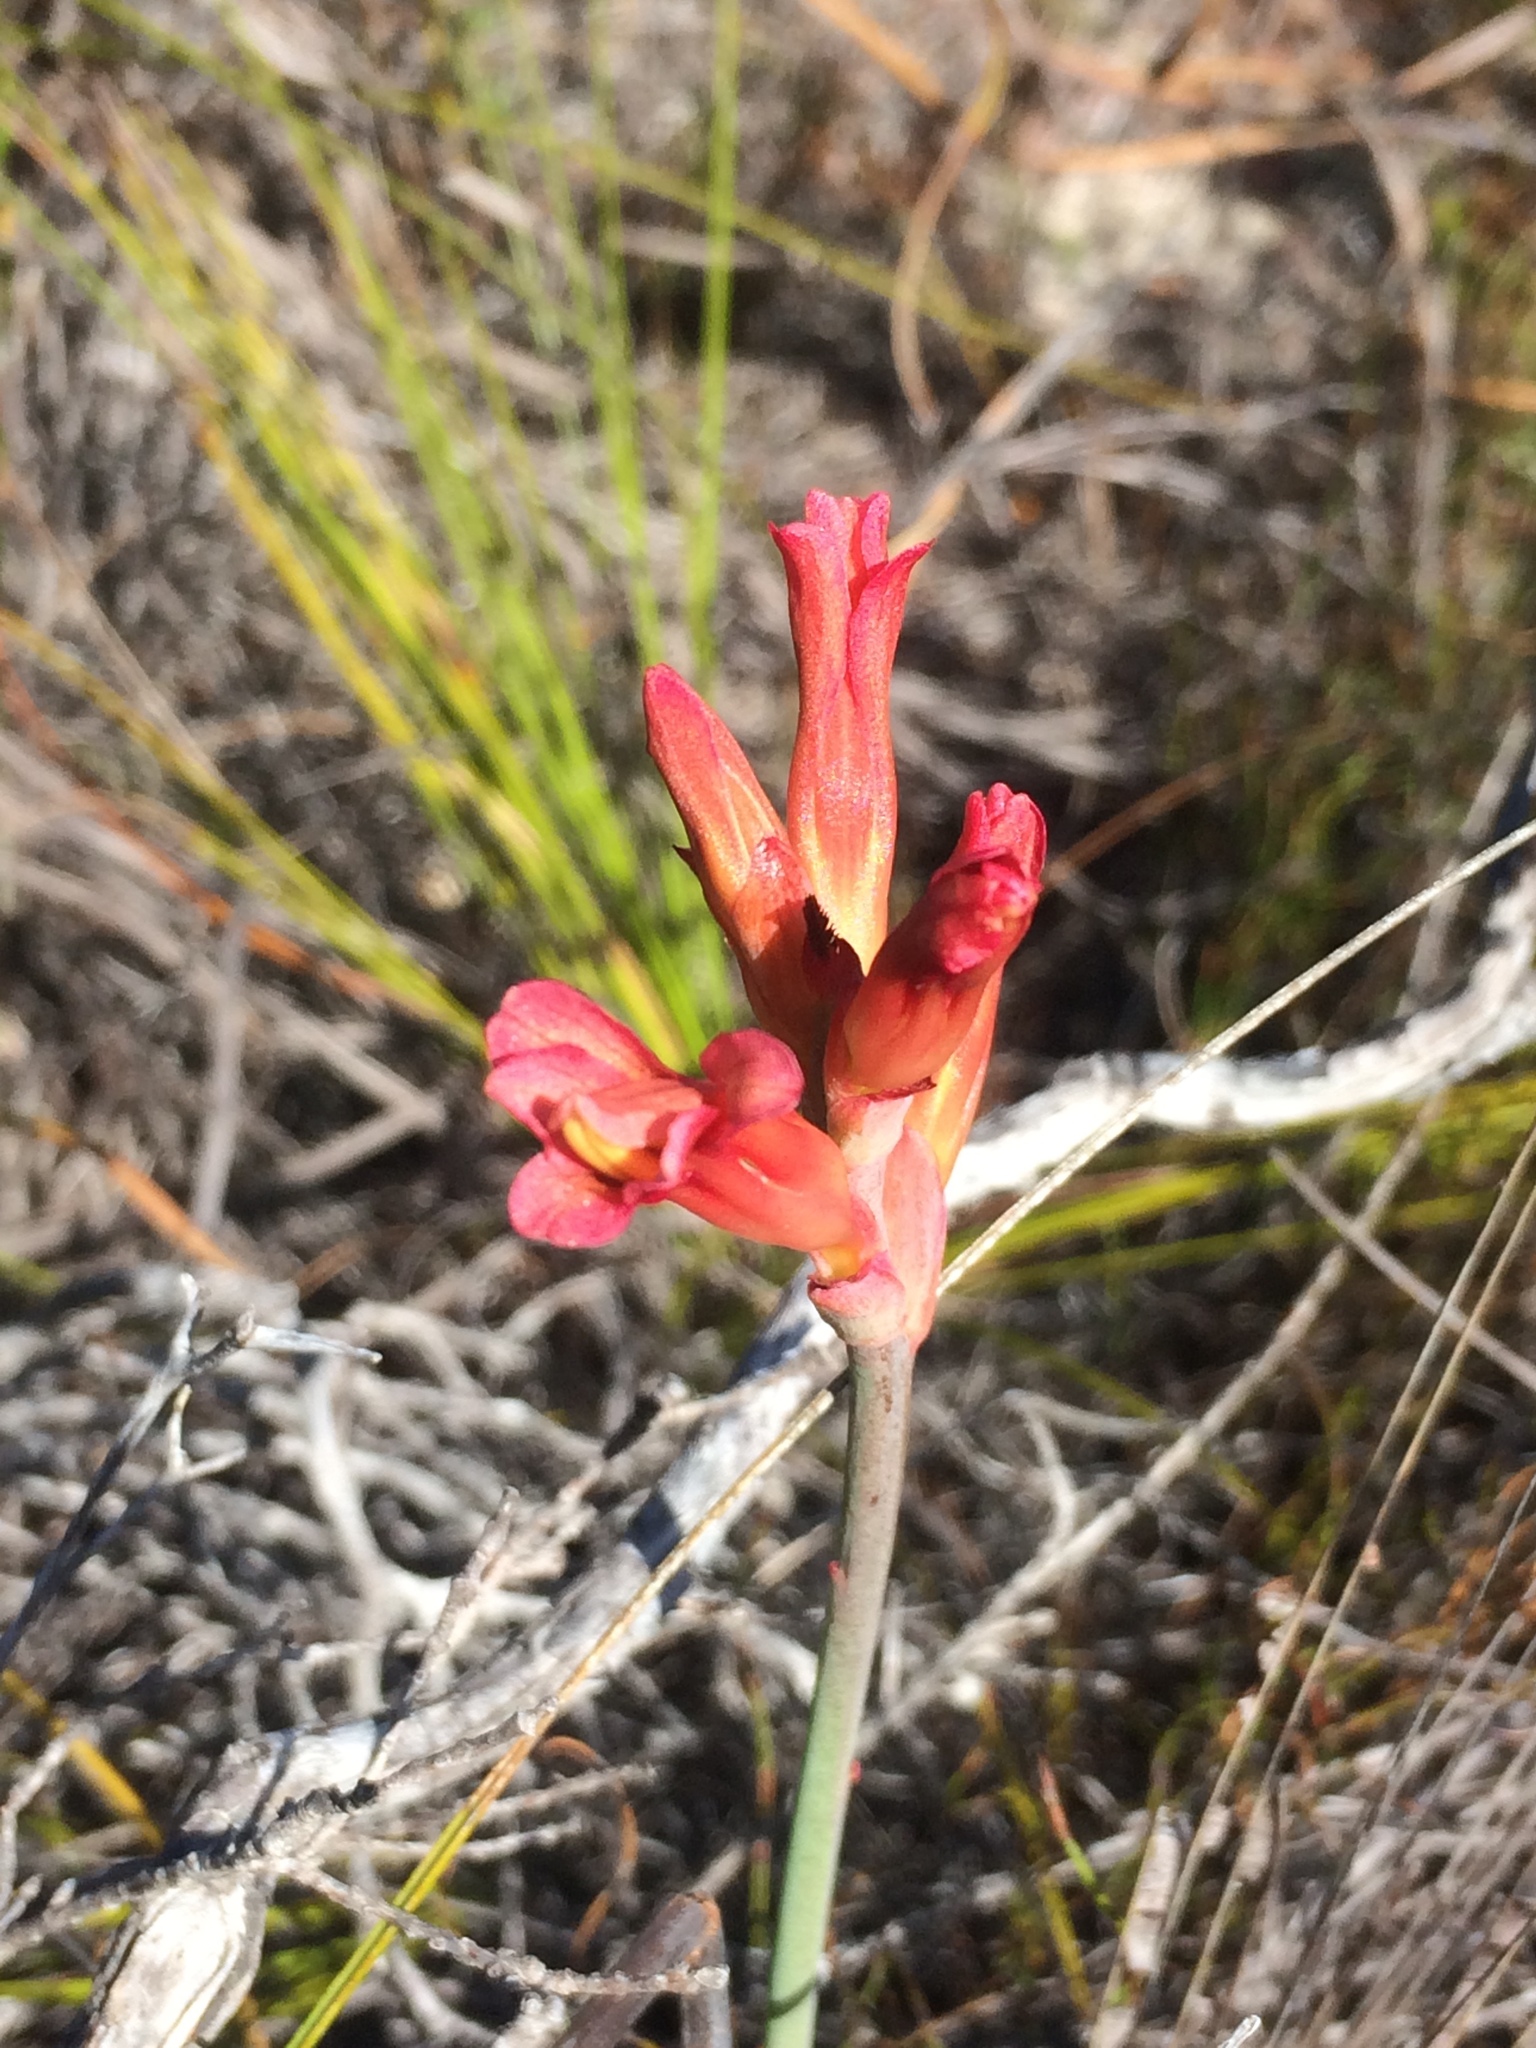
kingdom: Plantae
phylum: Tracheophyta
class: Liliopsida
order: Asparagales
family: Iridaceae
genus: Tritoniopsis
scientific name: Tritoniopsis triticea
